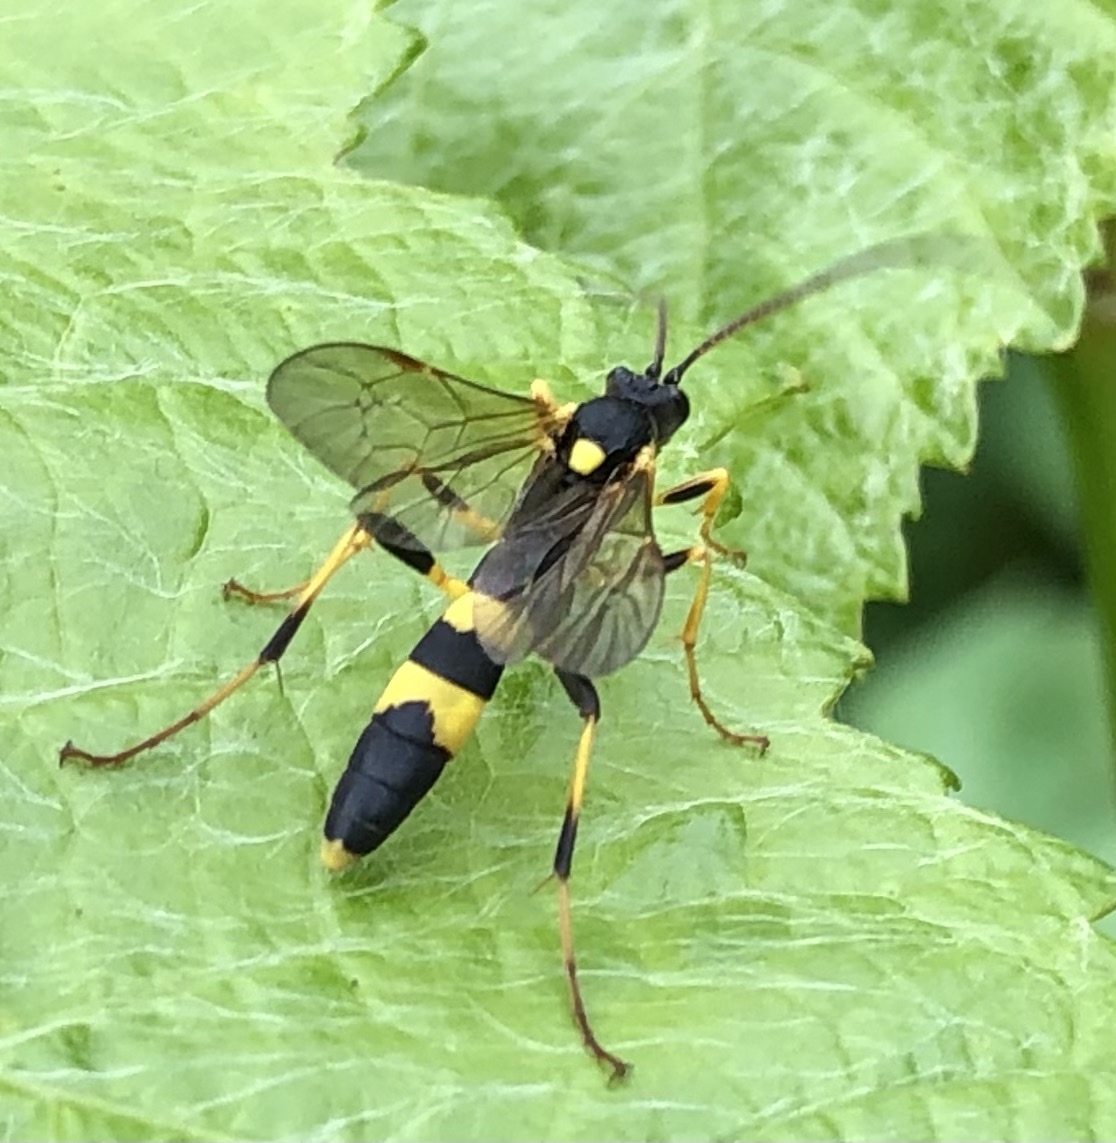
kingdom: Animalia
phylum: Arthropoda
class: Insecta
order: Hymenoptera
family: Ichneumonidae
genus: Amblyteles
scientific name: Amblyteles armatorius
